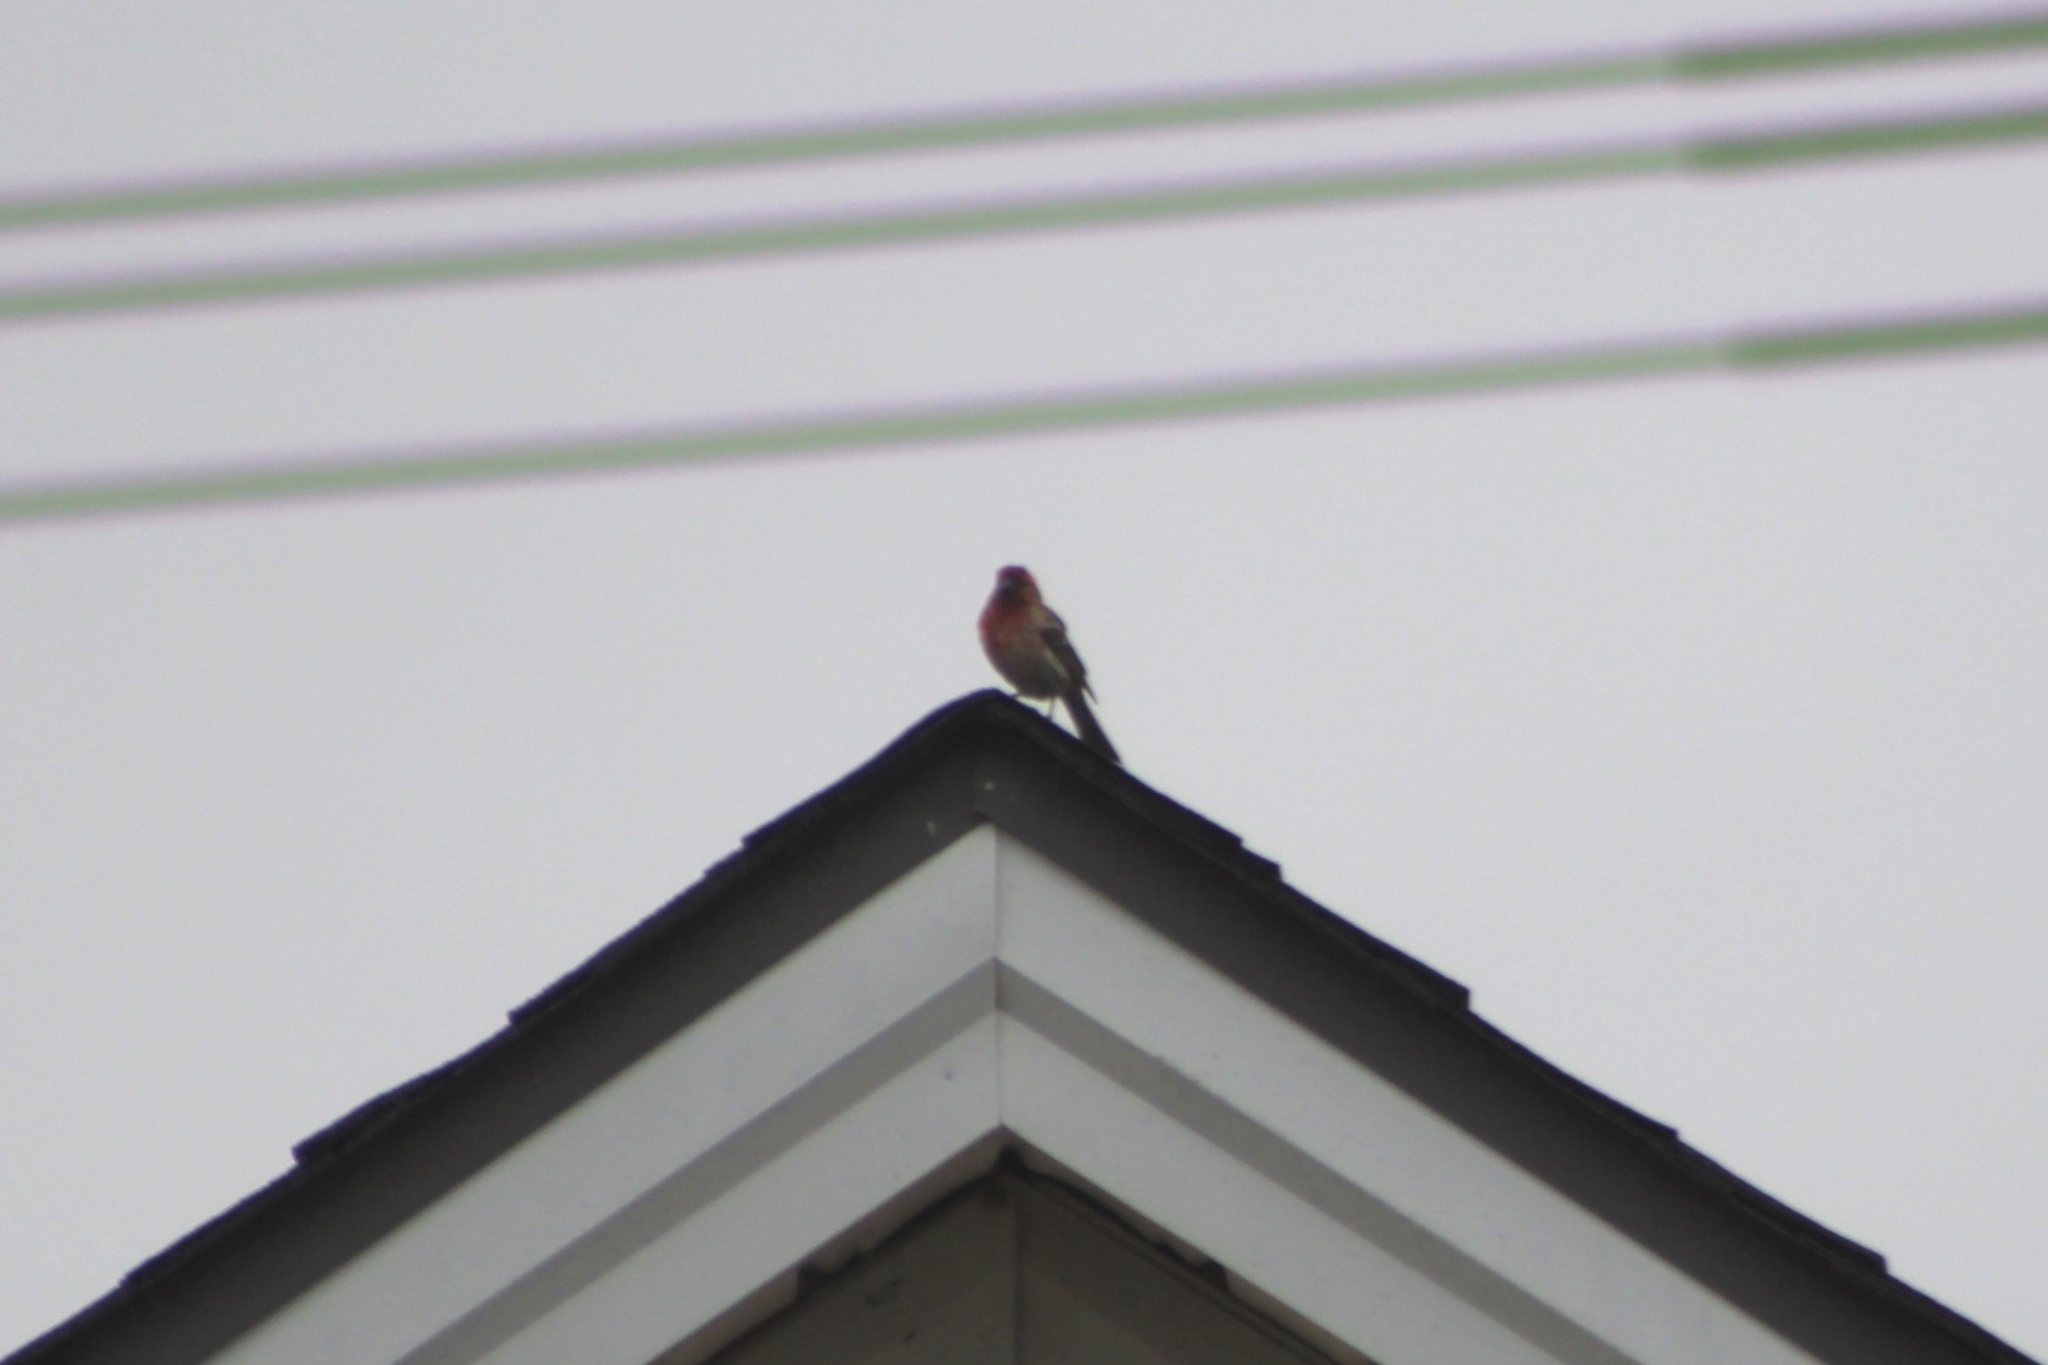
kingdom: Animalia
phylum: Chordata
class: Aves
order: Passeriformes
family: Fringillidae
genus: Haemorhous
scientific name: Haemorhous mexicanus
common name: House finch
